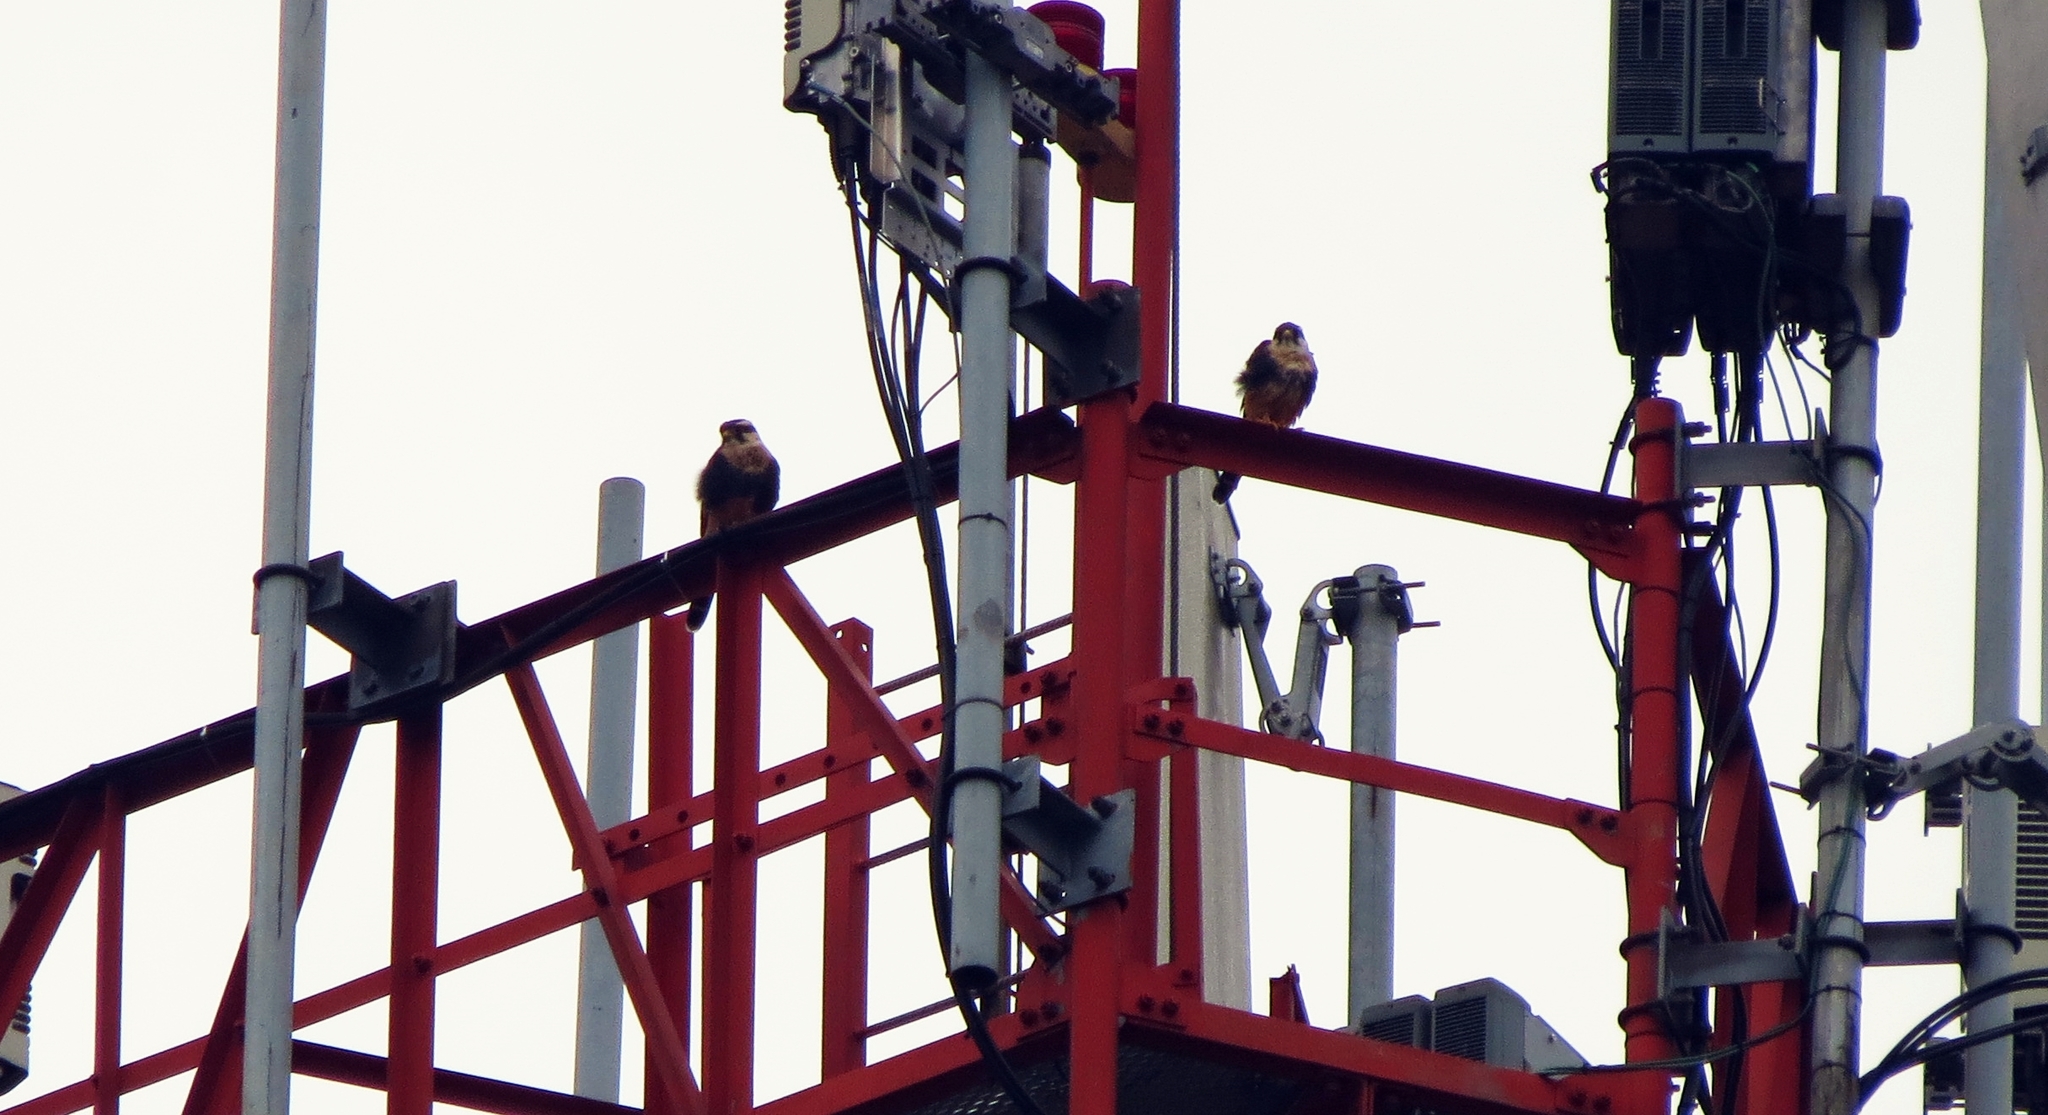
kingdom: Animalia
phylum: Chordata
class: Aves
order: Falconiformes
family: Falconidae
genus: Falco
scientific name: Falco femoralis
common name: Aplomado falcon
